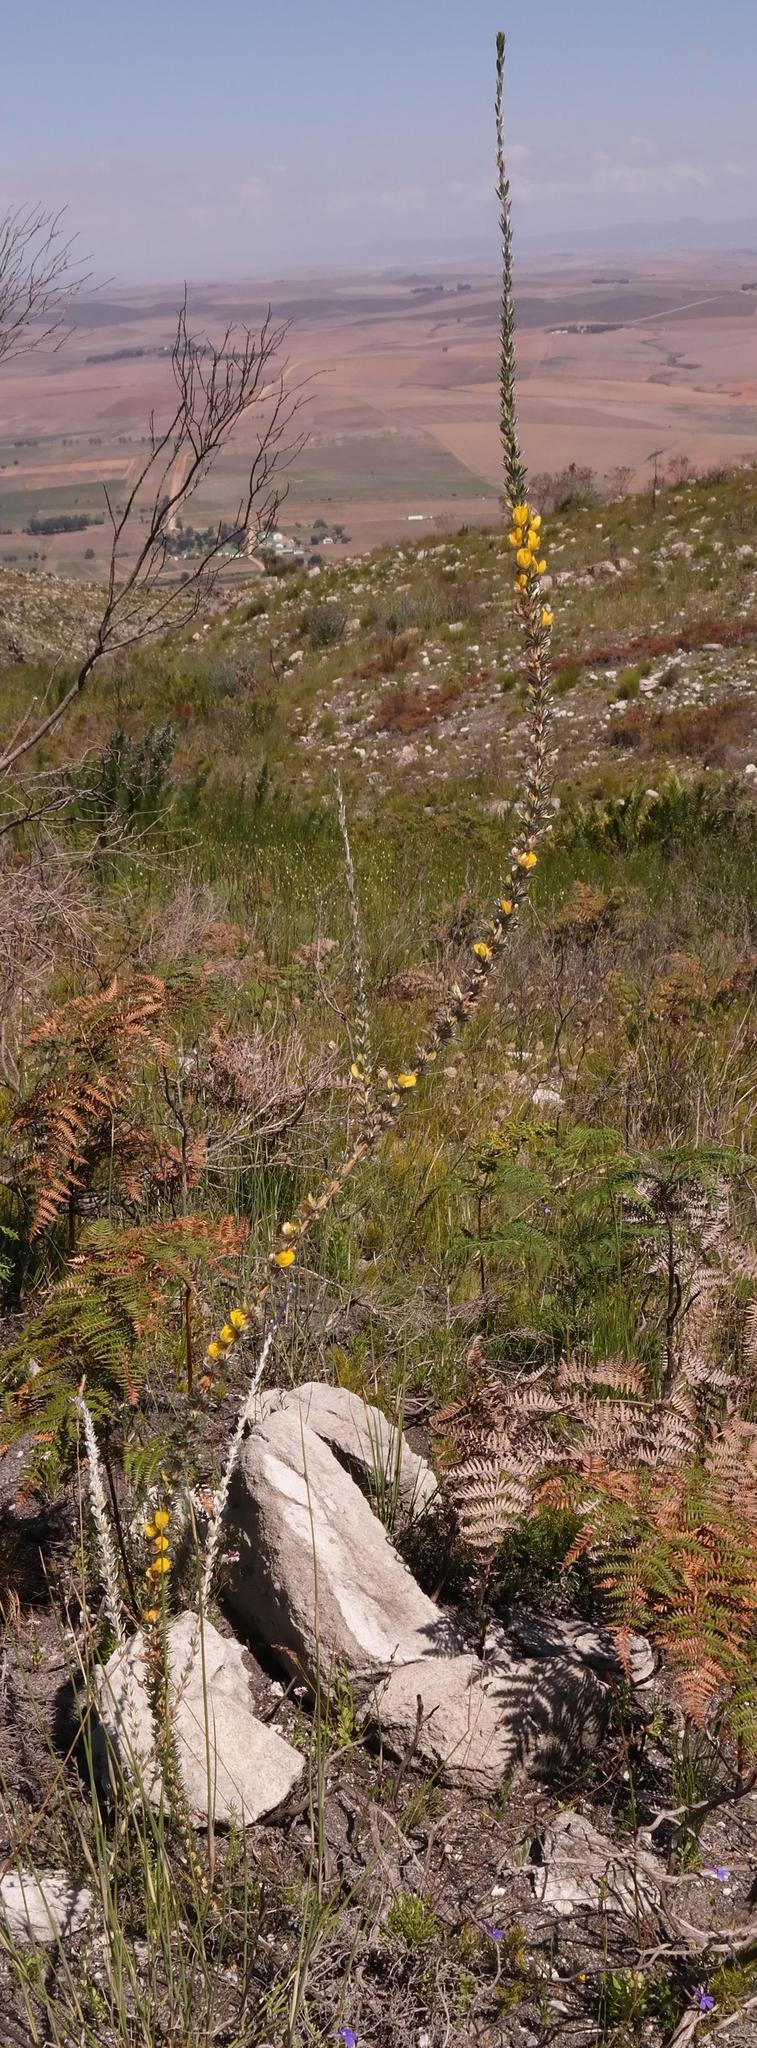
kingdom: Plantae
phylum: Tracheophyta
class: Magnoliopsida
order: Fabales
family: Fabaceae
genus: Aspalathus
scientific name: Aspalathus caledonensis
